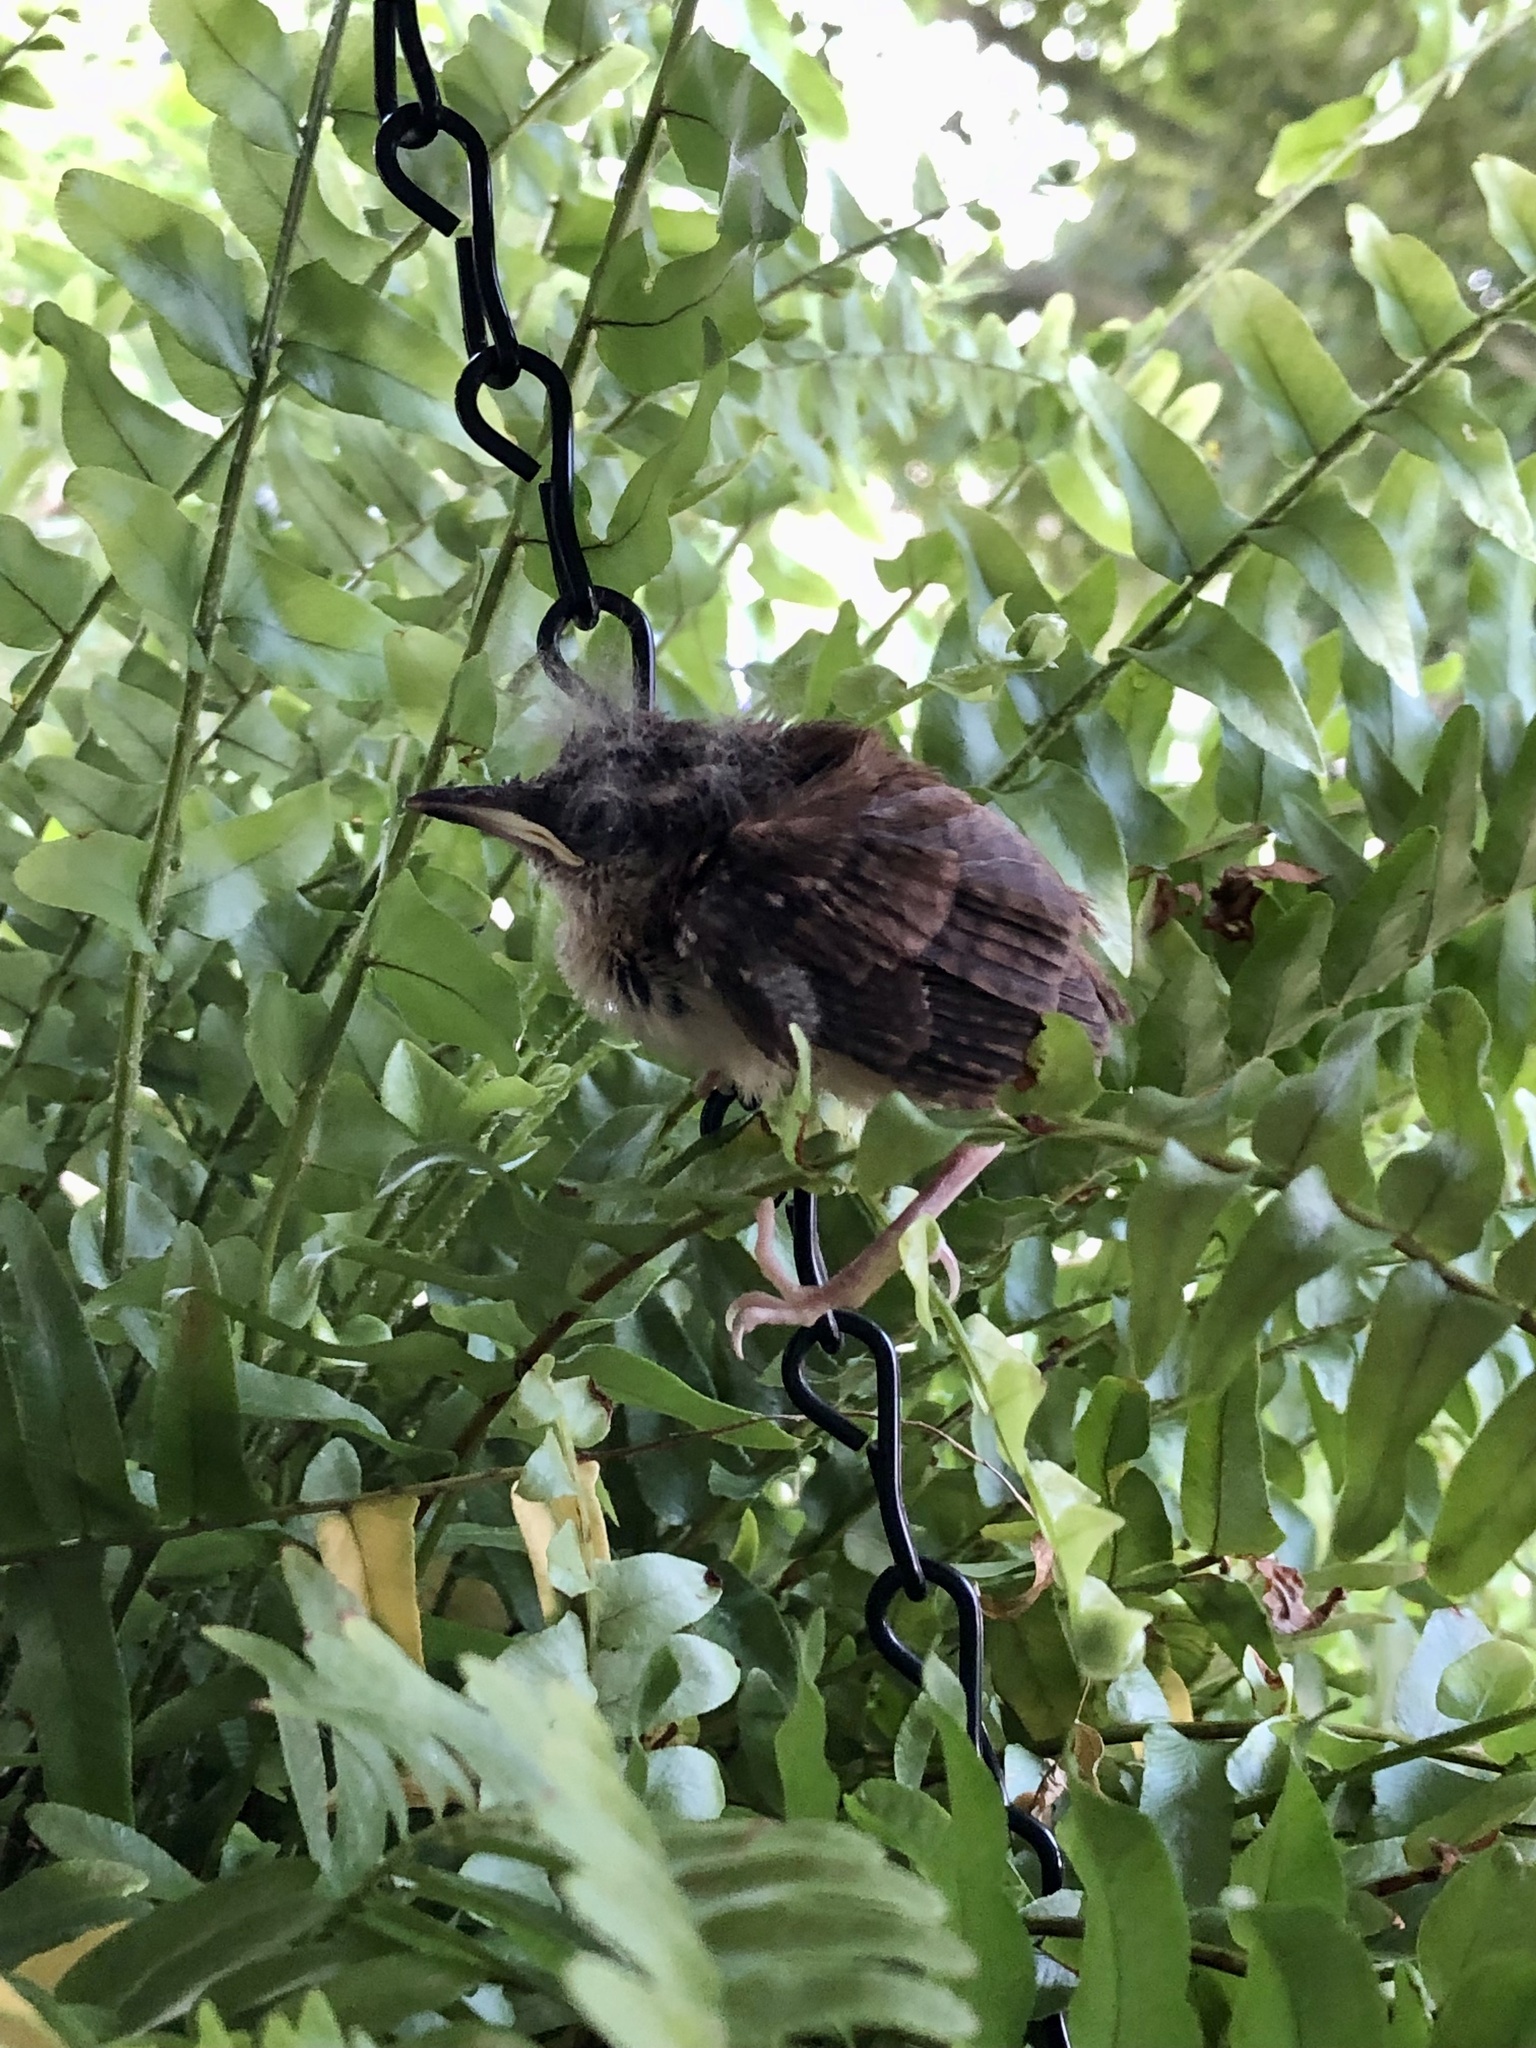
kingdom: Animalia
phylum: Chordata
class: Aves
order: Passeriformes
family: Troglodytidae
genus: Thryothorus
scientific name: Thryothorus ludovicianus
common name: Carolina wren
